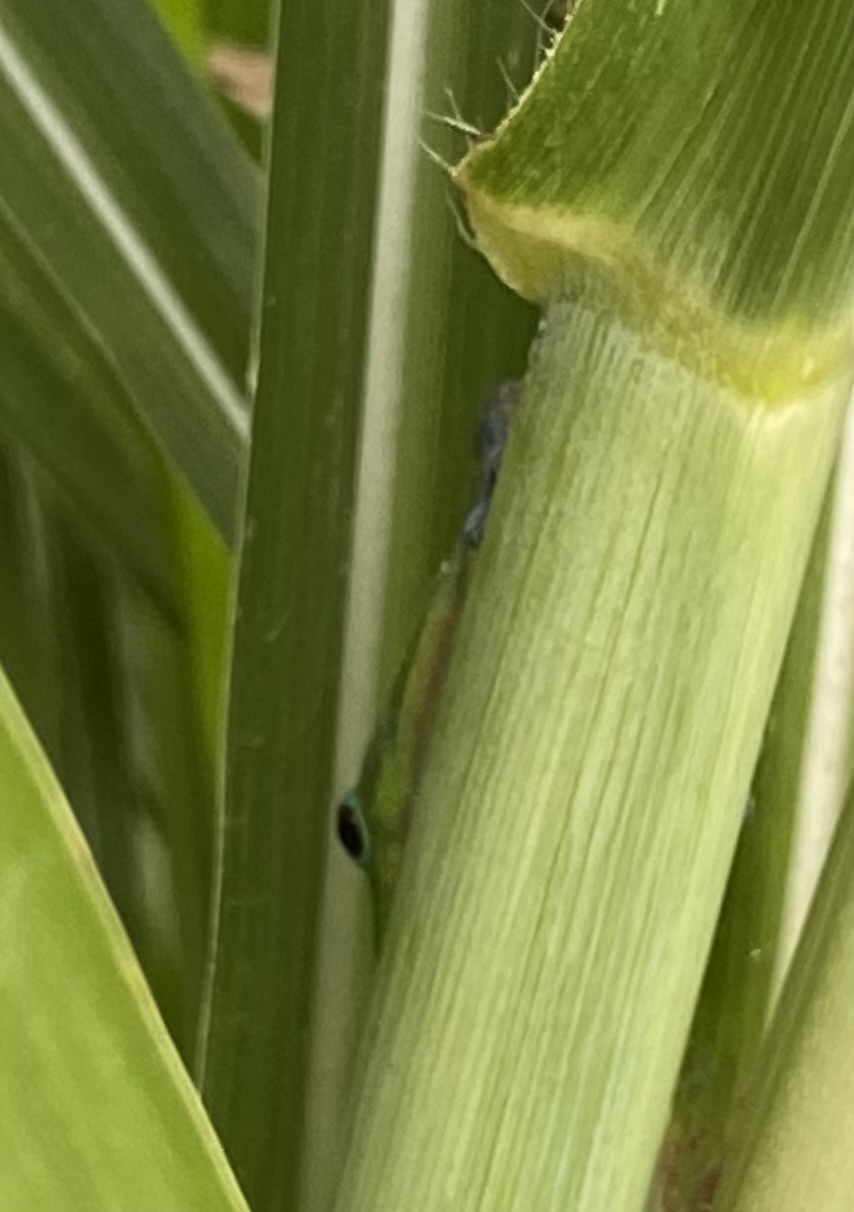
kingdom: Animalia
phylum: Chordata
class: Squamata
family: Gekkonidae
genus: Phelsuma
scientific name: Phelsuma laticauda
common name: Gold dust day gecko
